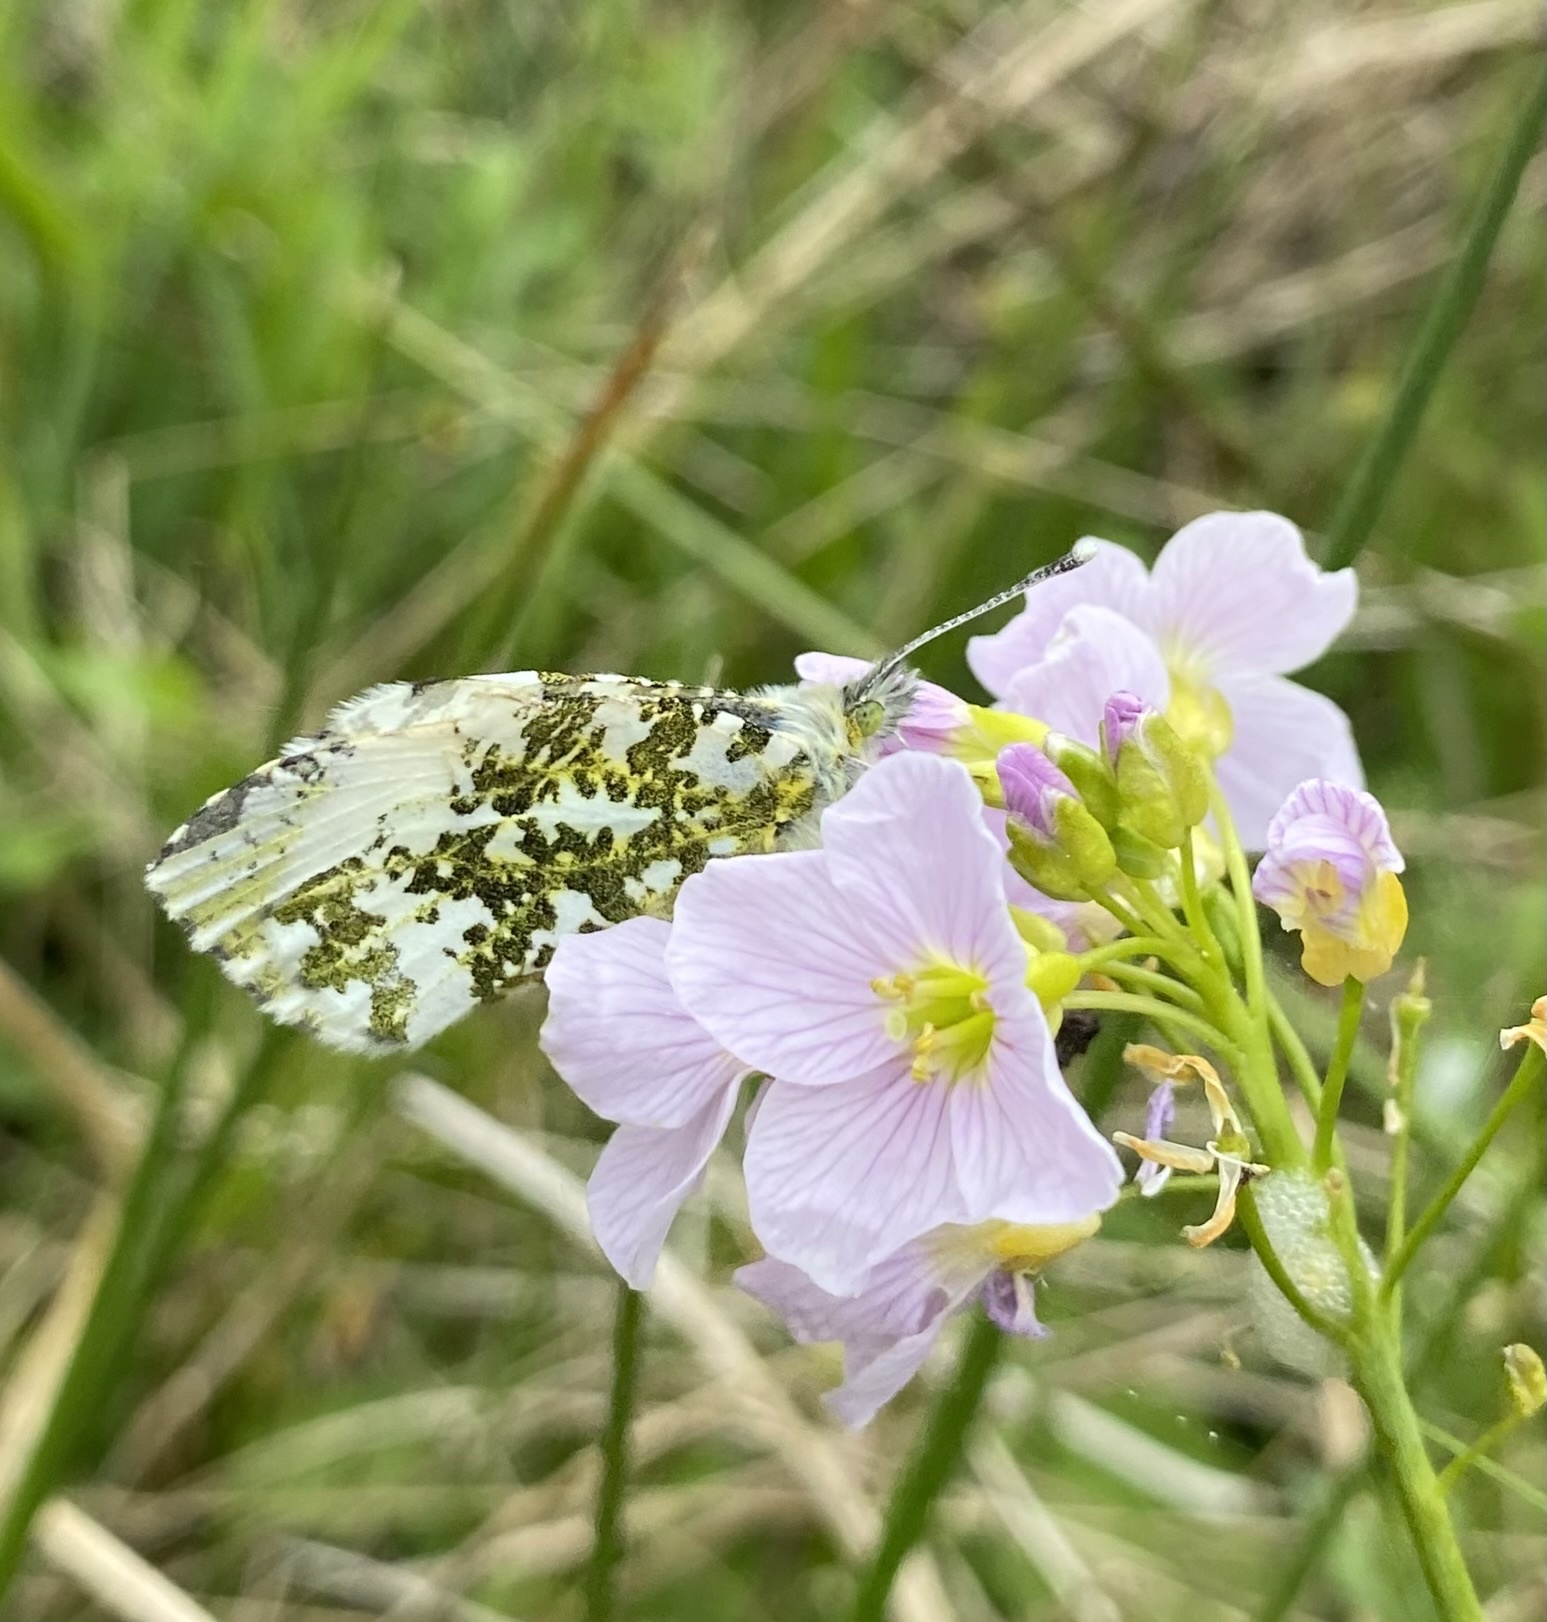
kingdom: Animalia
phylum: Arthropoda
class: Insecta
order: Lepidoptera
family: Pieridae
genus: Anthocharis
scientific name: Anthocharis cardamines
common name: Orange-tip
